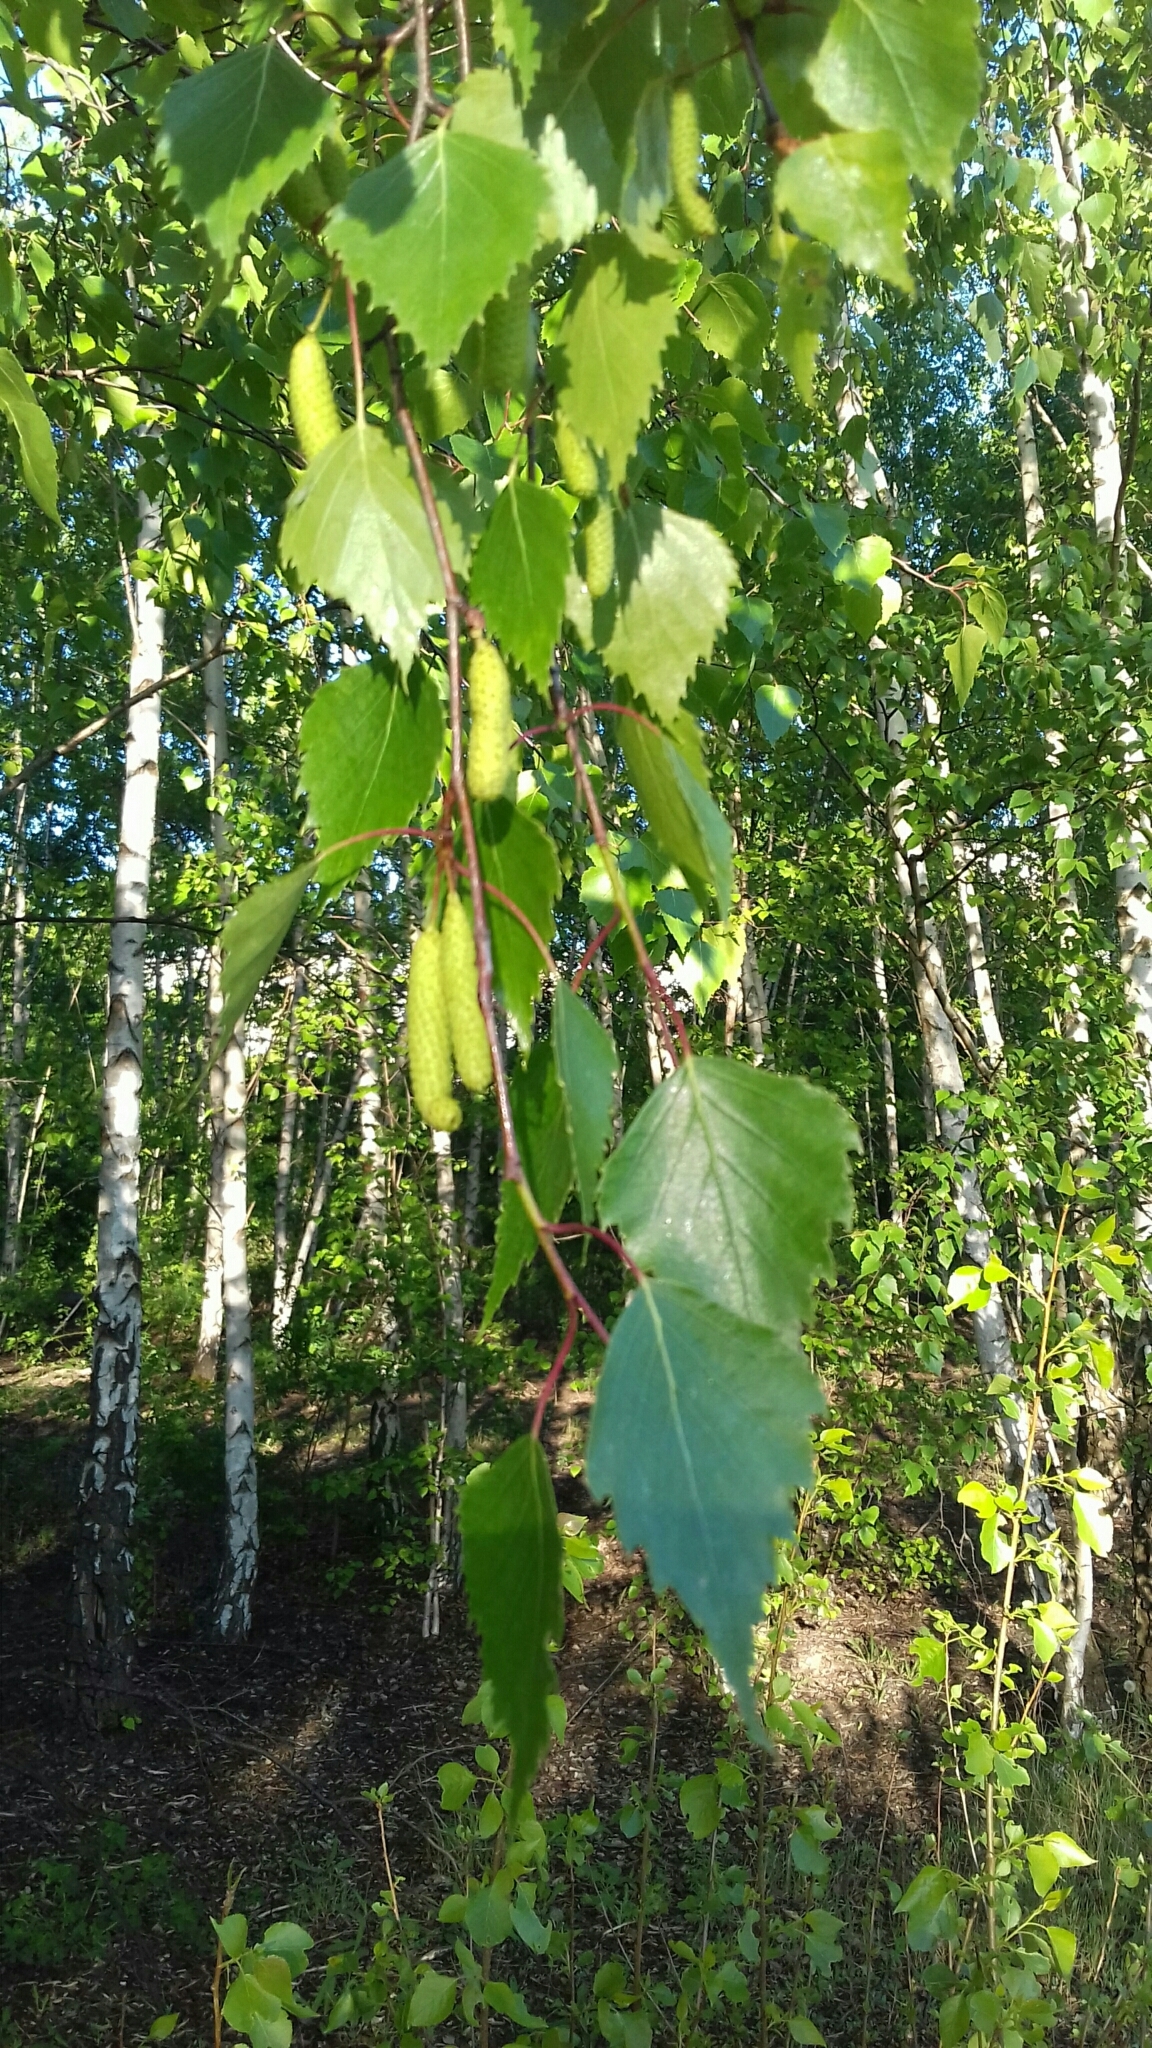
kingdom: Plantae
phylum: Tracheophyta
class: Magnoliopsida
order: Fagales
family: Betulaceae
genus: Betula
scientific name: Betula pendula
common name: Silver birch
